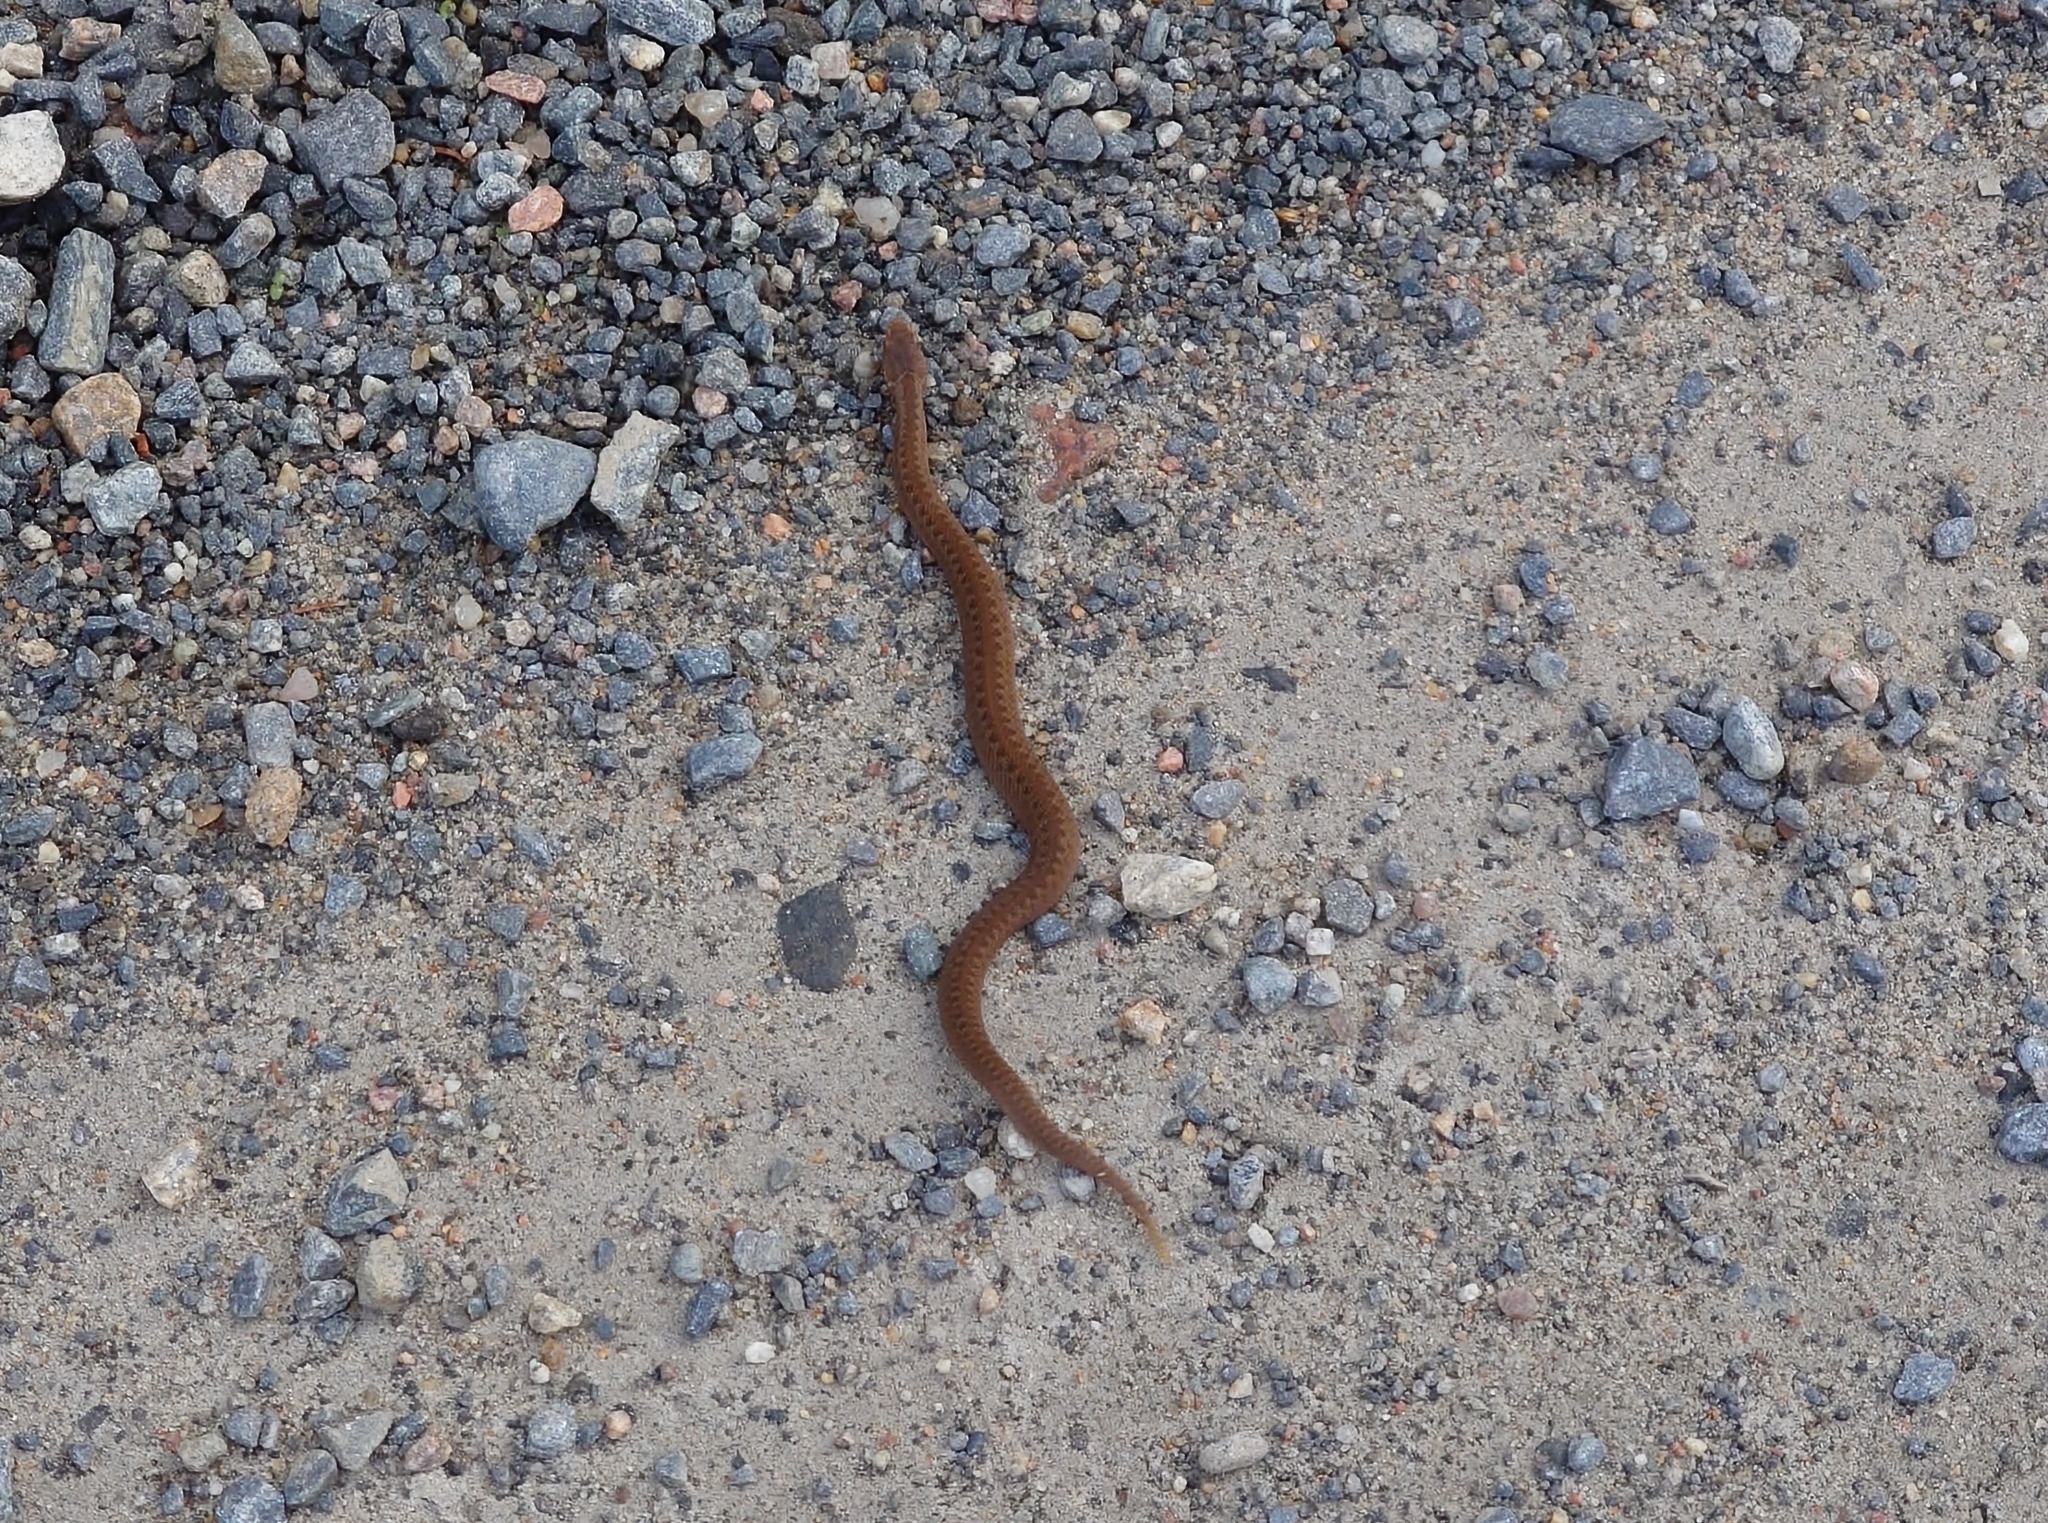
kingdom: Animalia
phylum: Chordata
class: Squamata
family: Viperidae
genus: Vipera
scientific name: Vipera berus
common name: Adder
